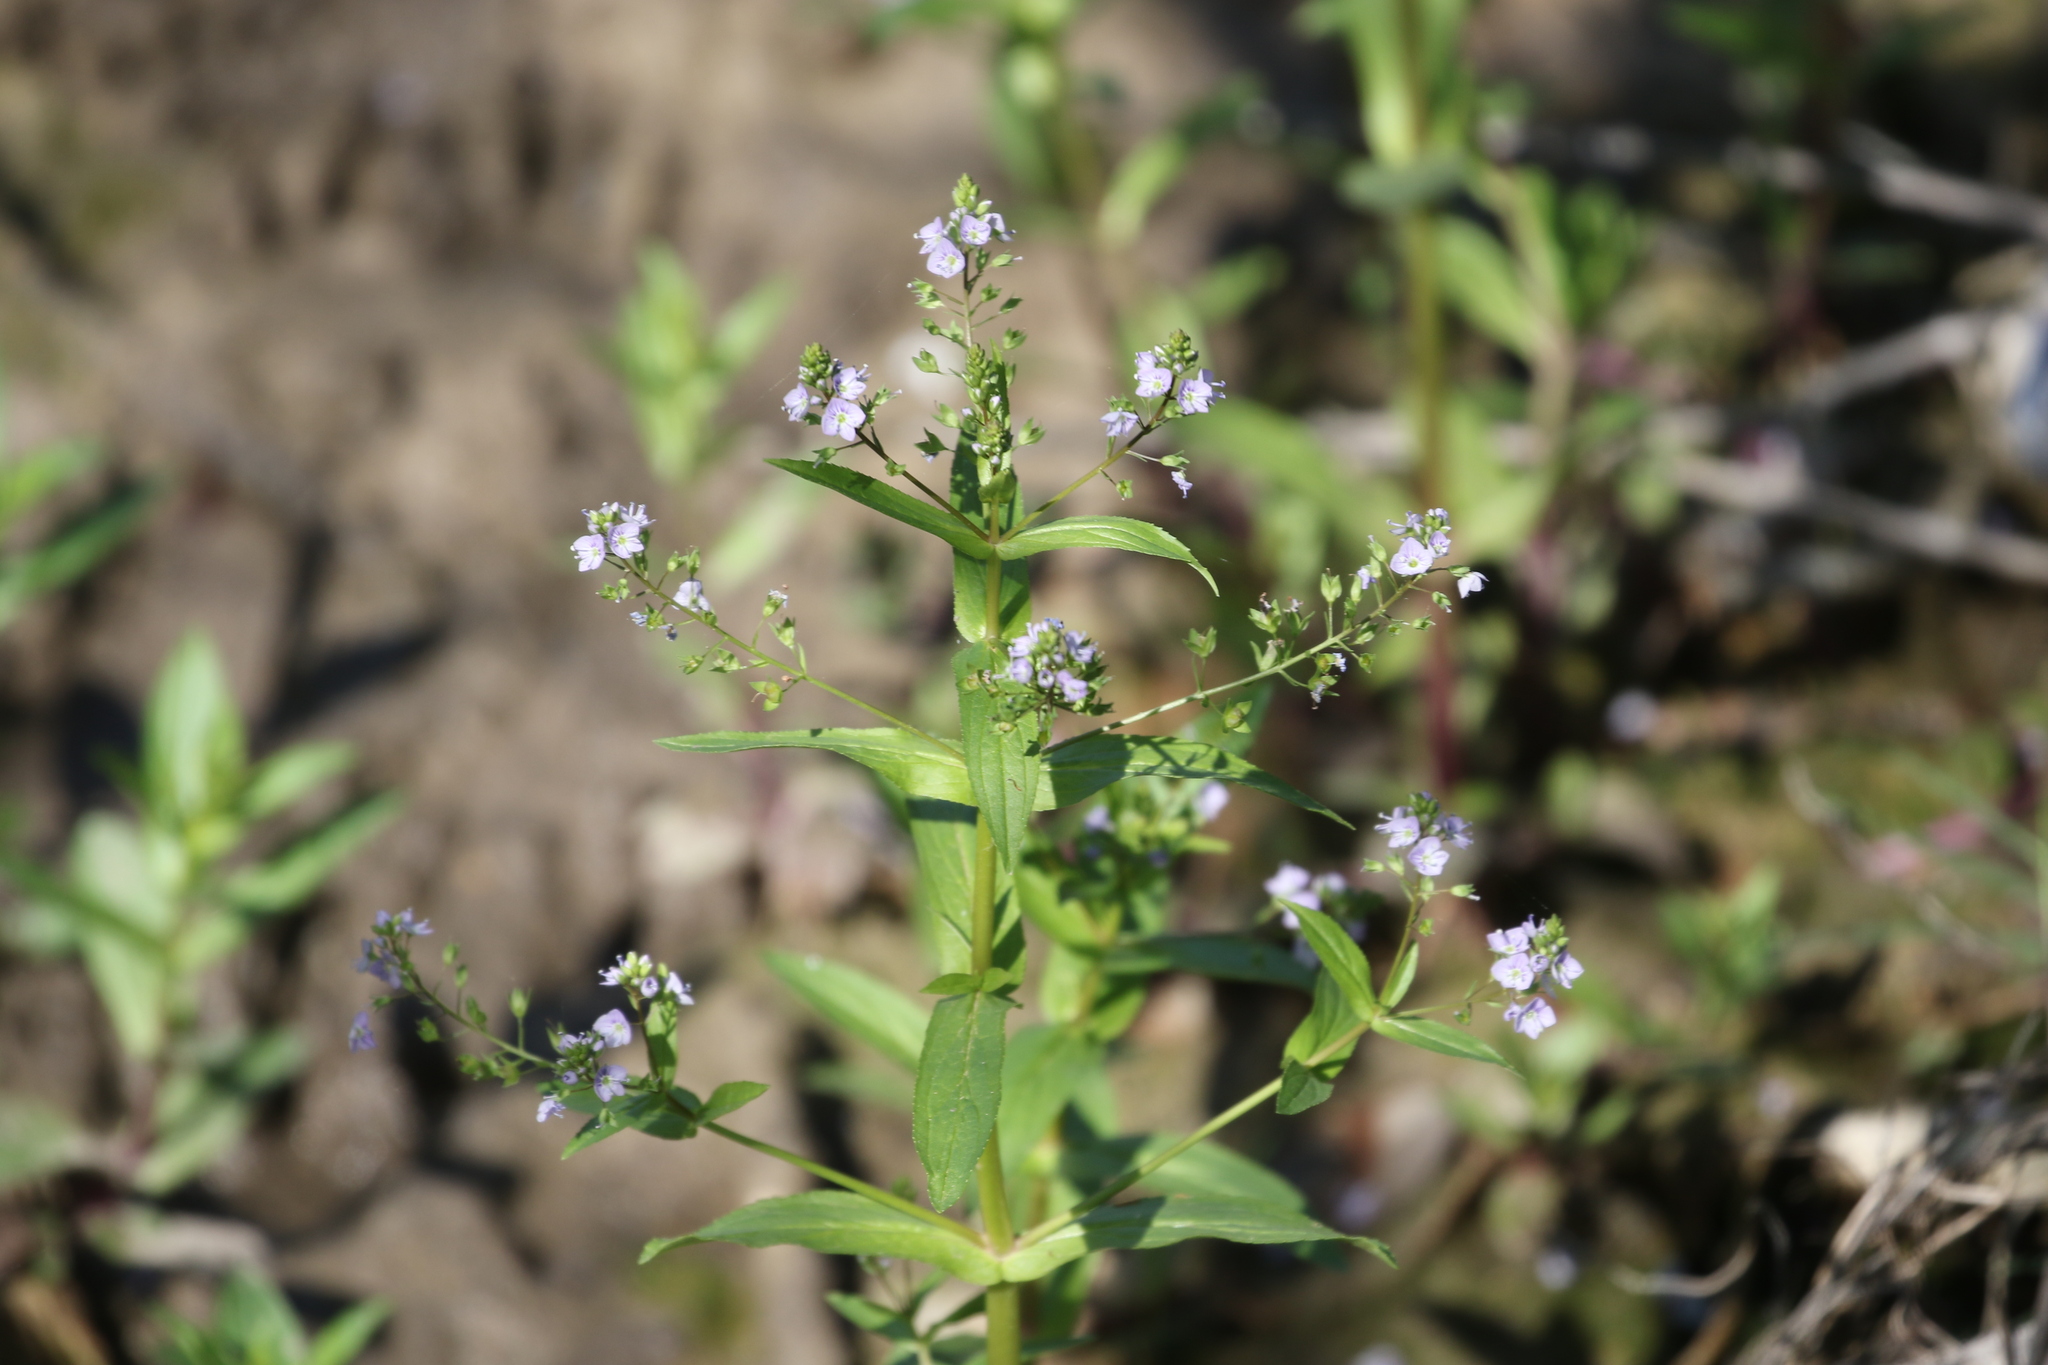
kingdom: Plantae
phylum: Tracheophyta
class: Magnoliopsida
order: Lamiales
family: Plantaginaceae
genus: Veronica
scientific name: Veronica anagallis-aquatica
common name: Water speedwell
